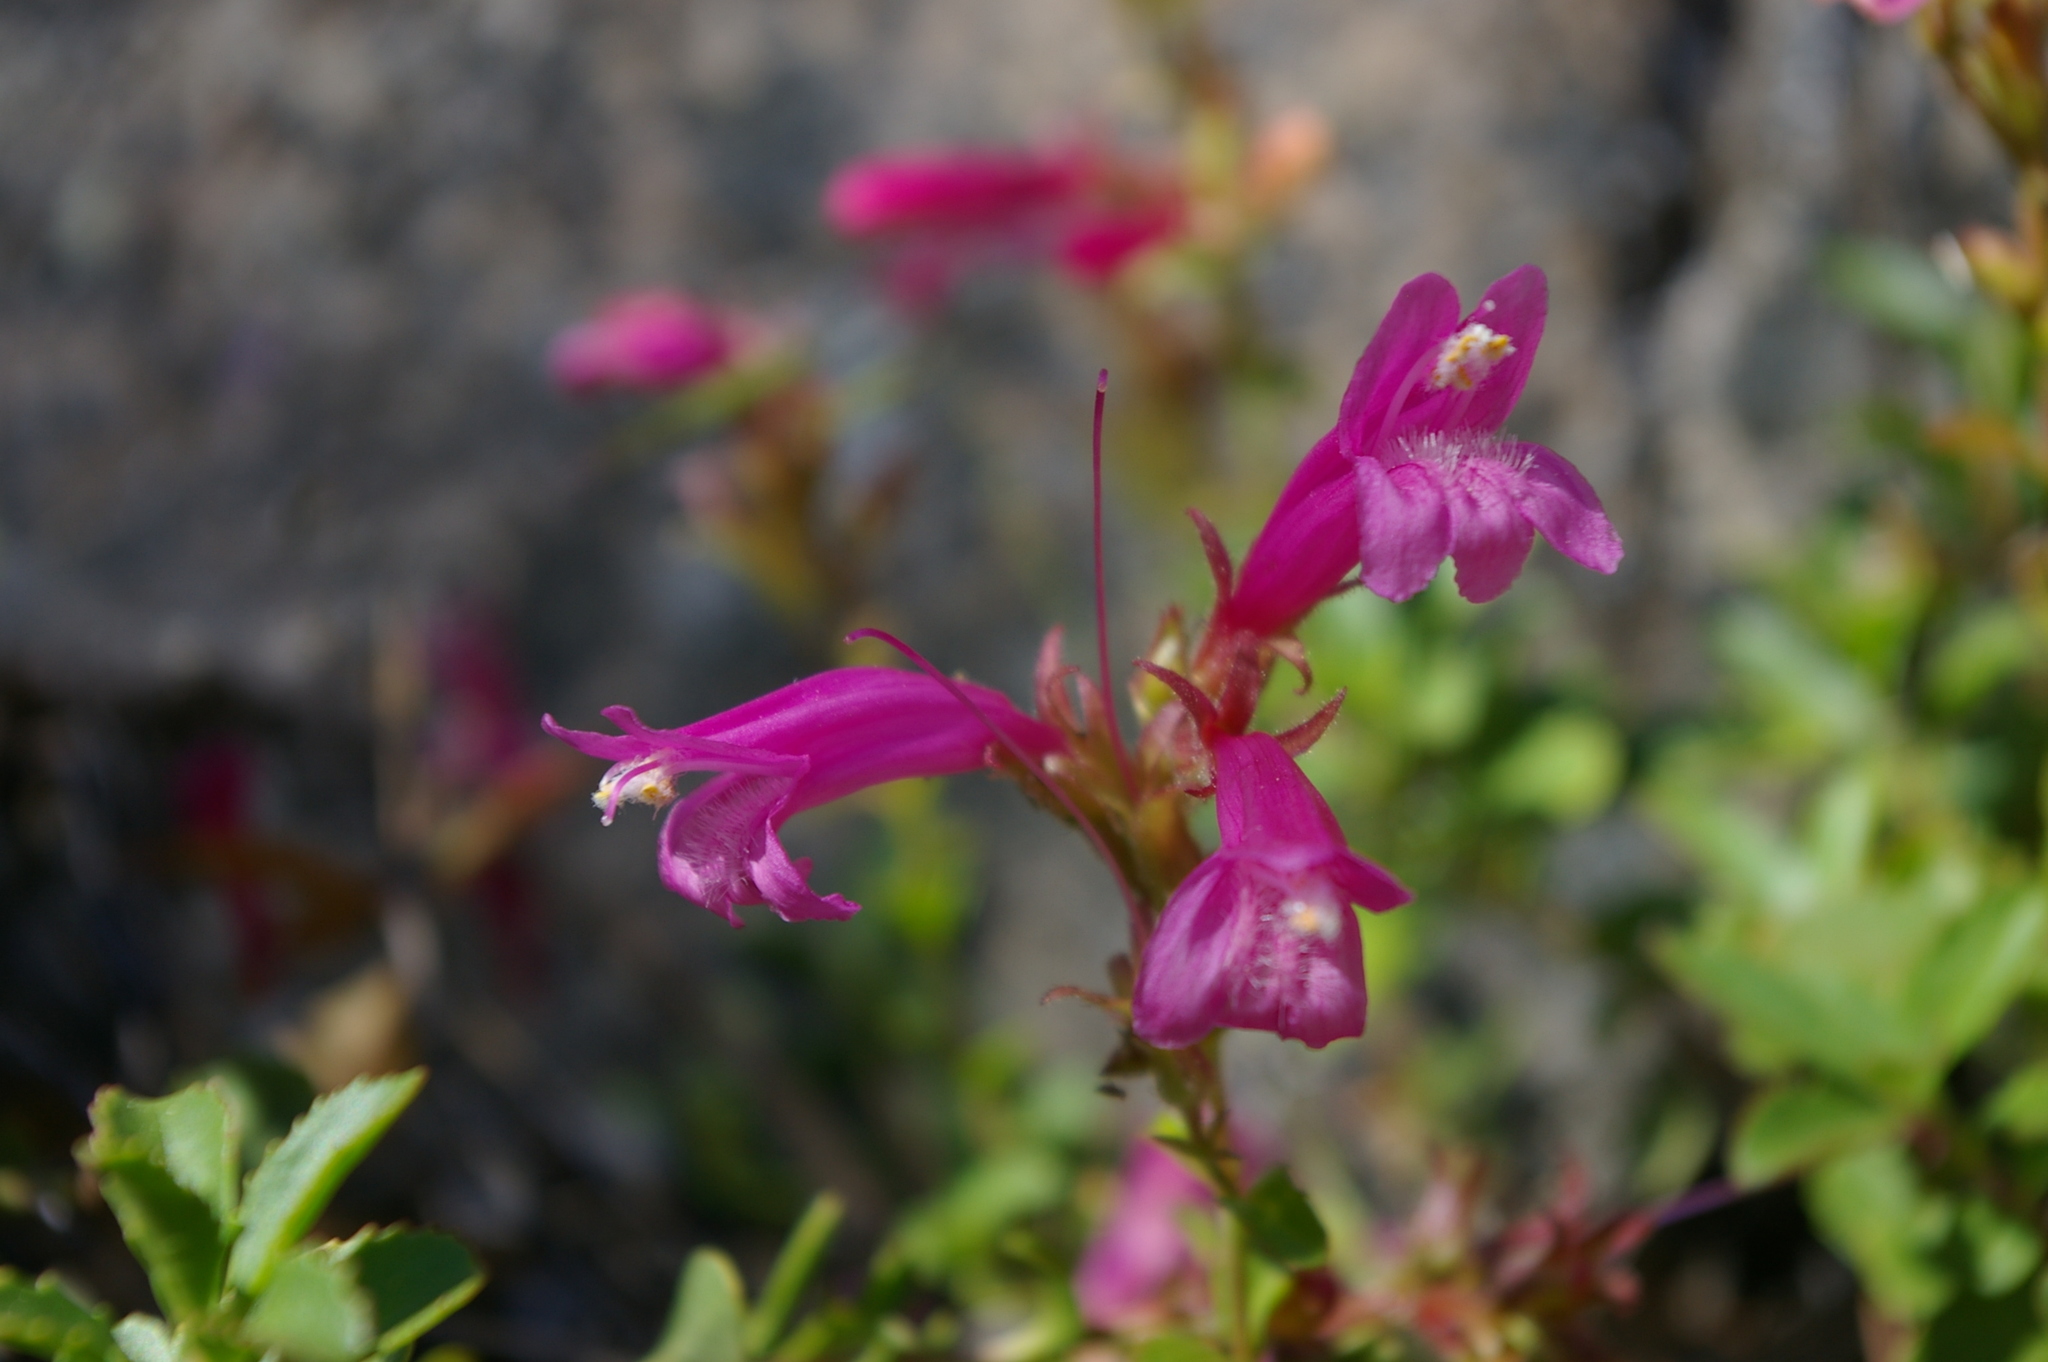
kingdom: Plantae
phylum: Tracheophyta
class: Magnoliopsida
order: Lamiales
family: Plantaginaceae
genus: Penstemon
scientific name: Penstemon newberryi
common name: Mountain-pride
